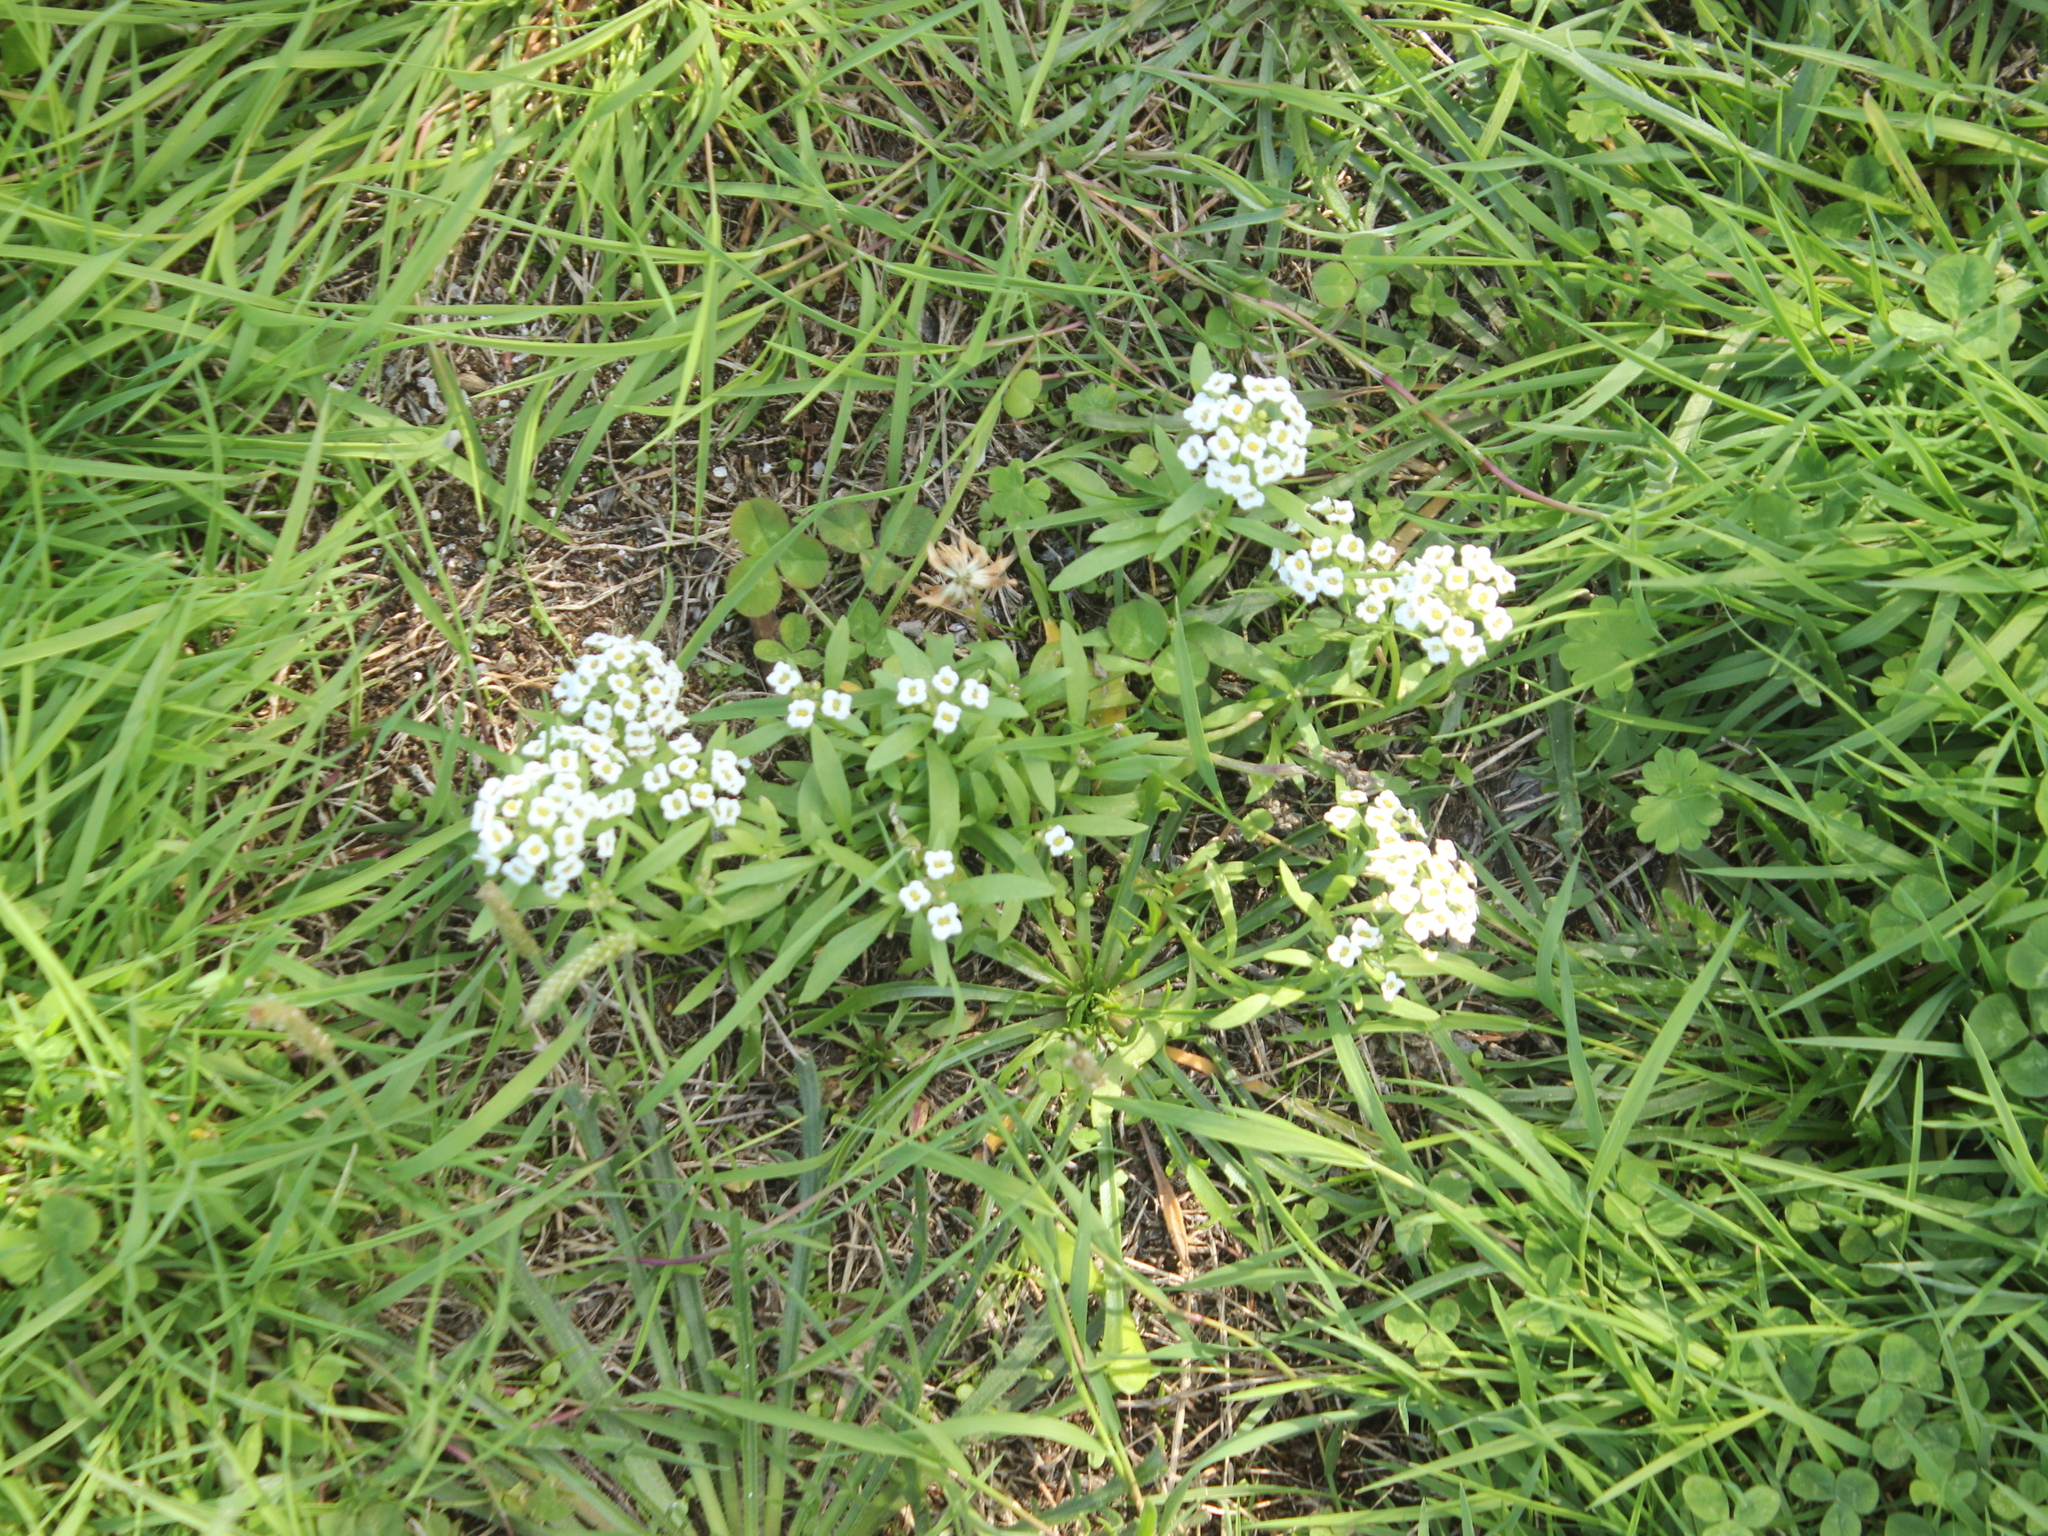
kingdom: Plantae
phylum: Tracheophyta
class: Magnoliopsida
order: Brassicales
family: Brassicaceae
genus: Lobularia
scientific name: Lobularia maritima
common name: Sweet alison
